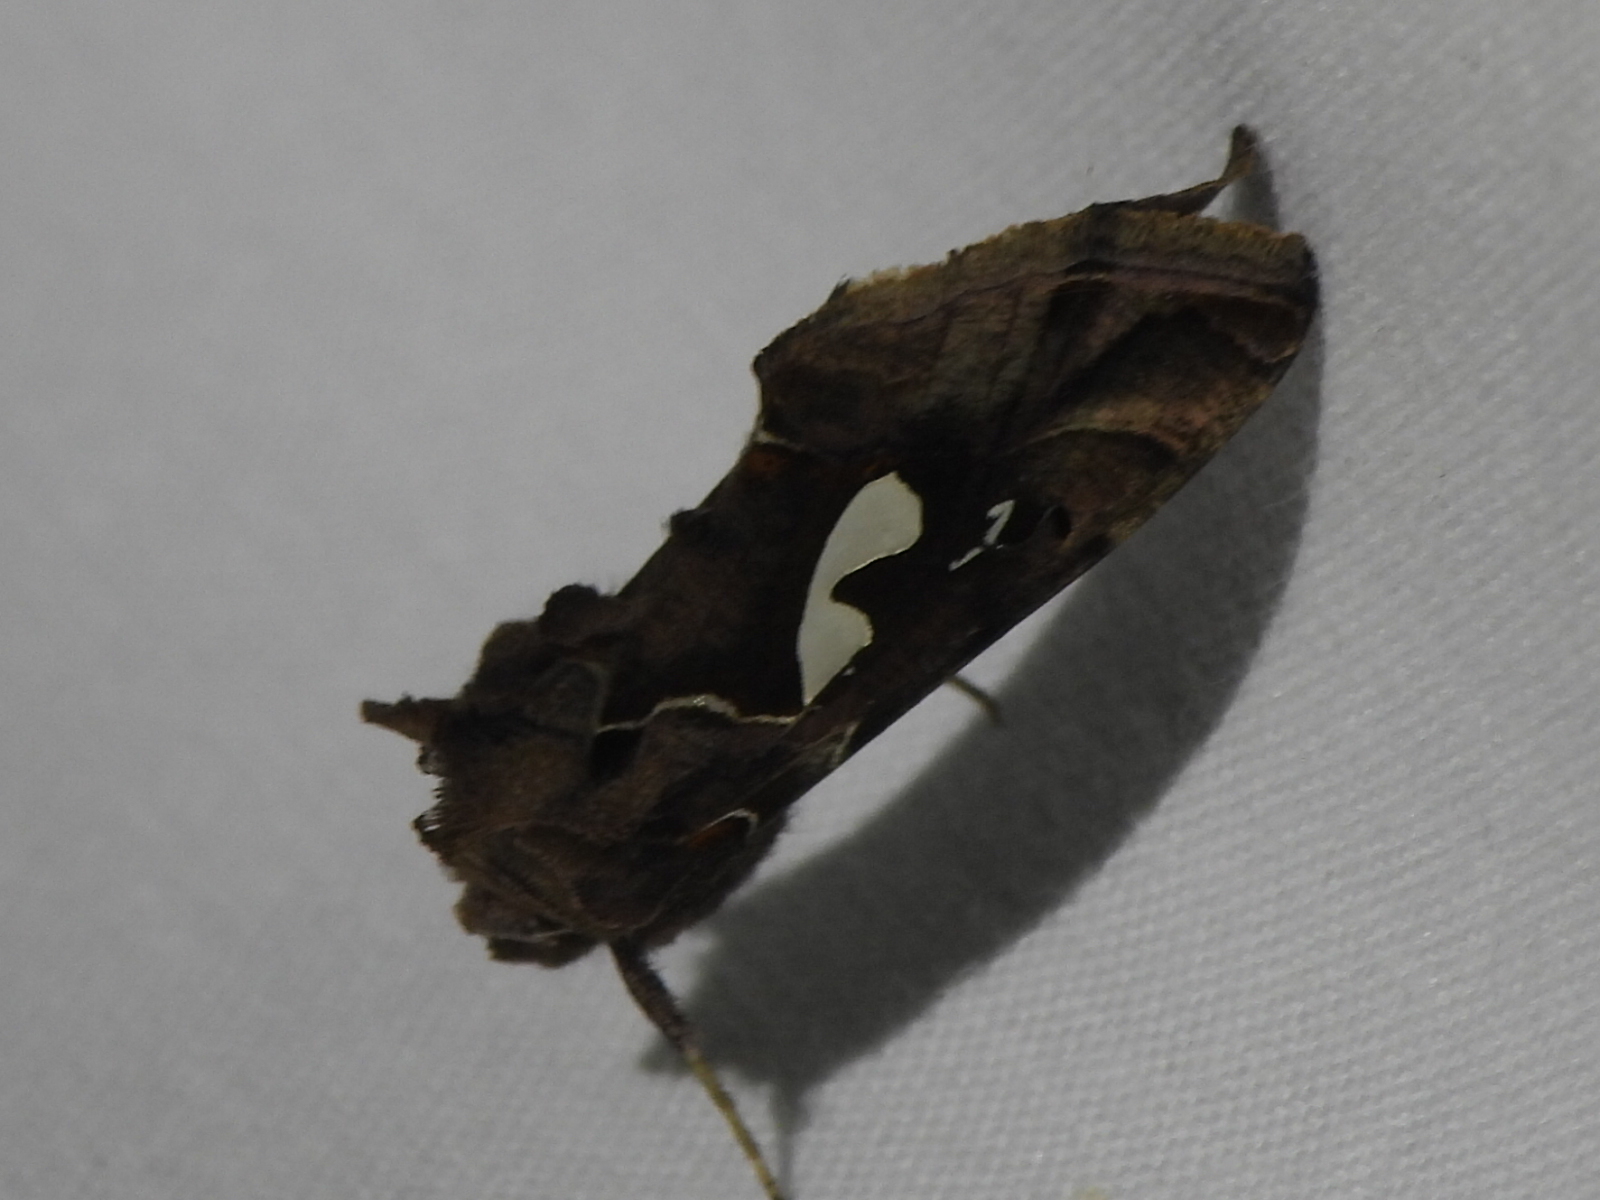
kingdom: Animalia
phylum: Arthropoda
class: Insecta
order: Lepidoptera
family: Noctuidae
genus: Megalographa
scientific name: Megalographa biloba
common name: Cutworm
